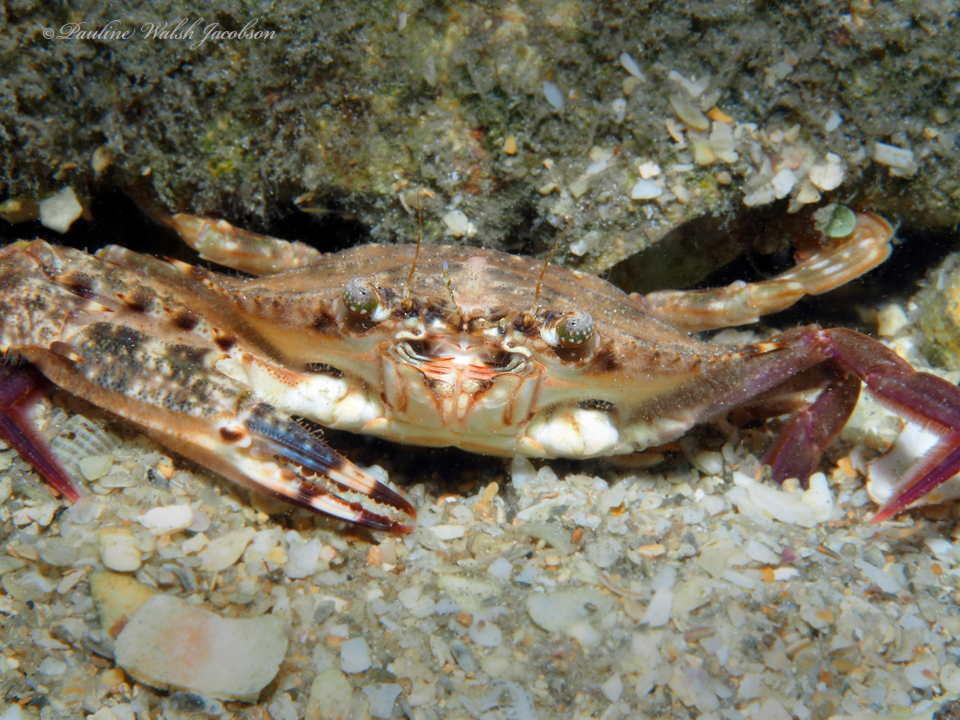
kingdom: Animalia
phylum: Arthropoda
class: Malacostraca
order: Decapoda
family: Portunidae
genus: Achelous
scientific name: Achelous spinimanus
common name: Spiny-handed portunus
